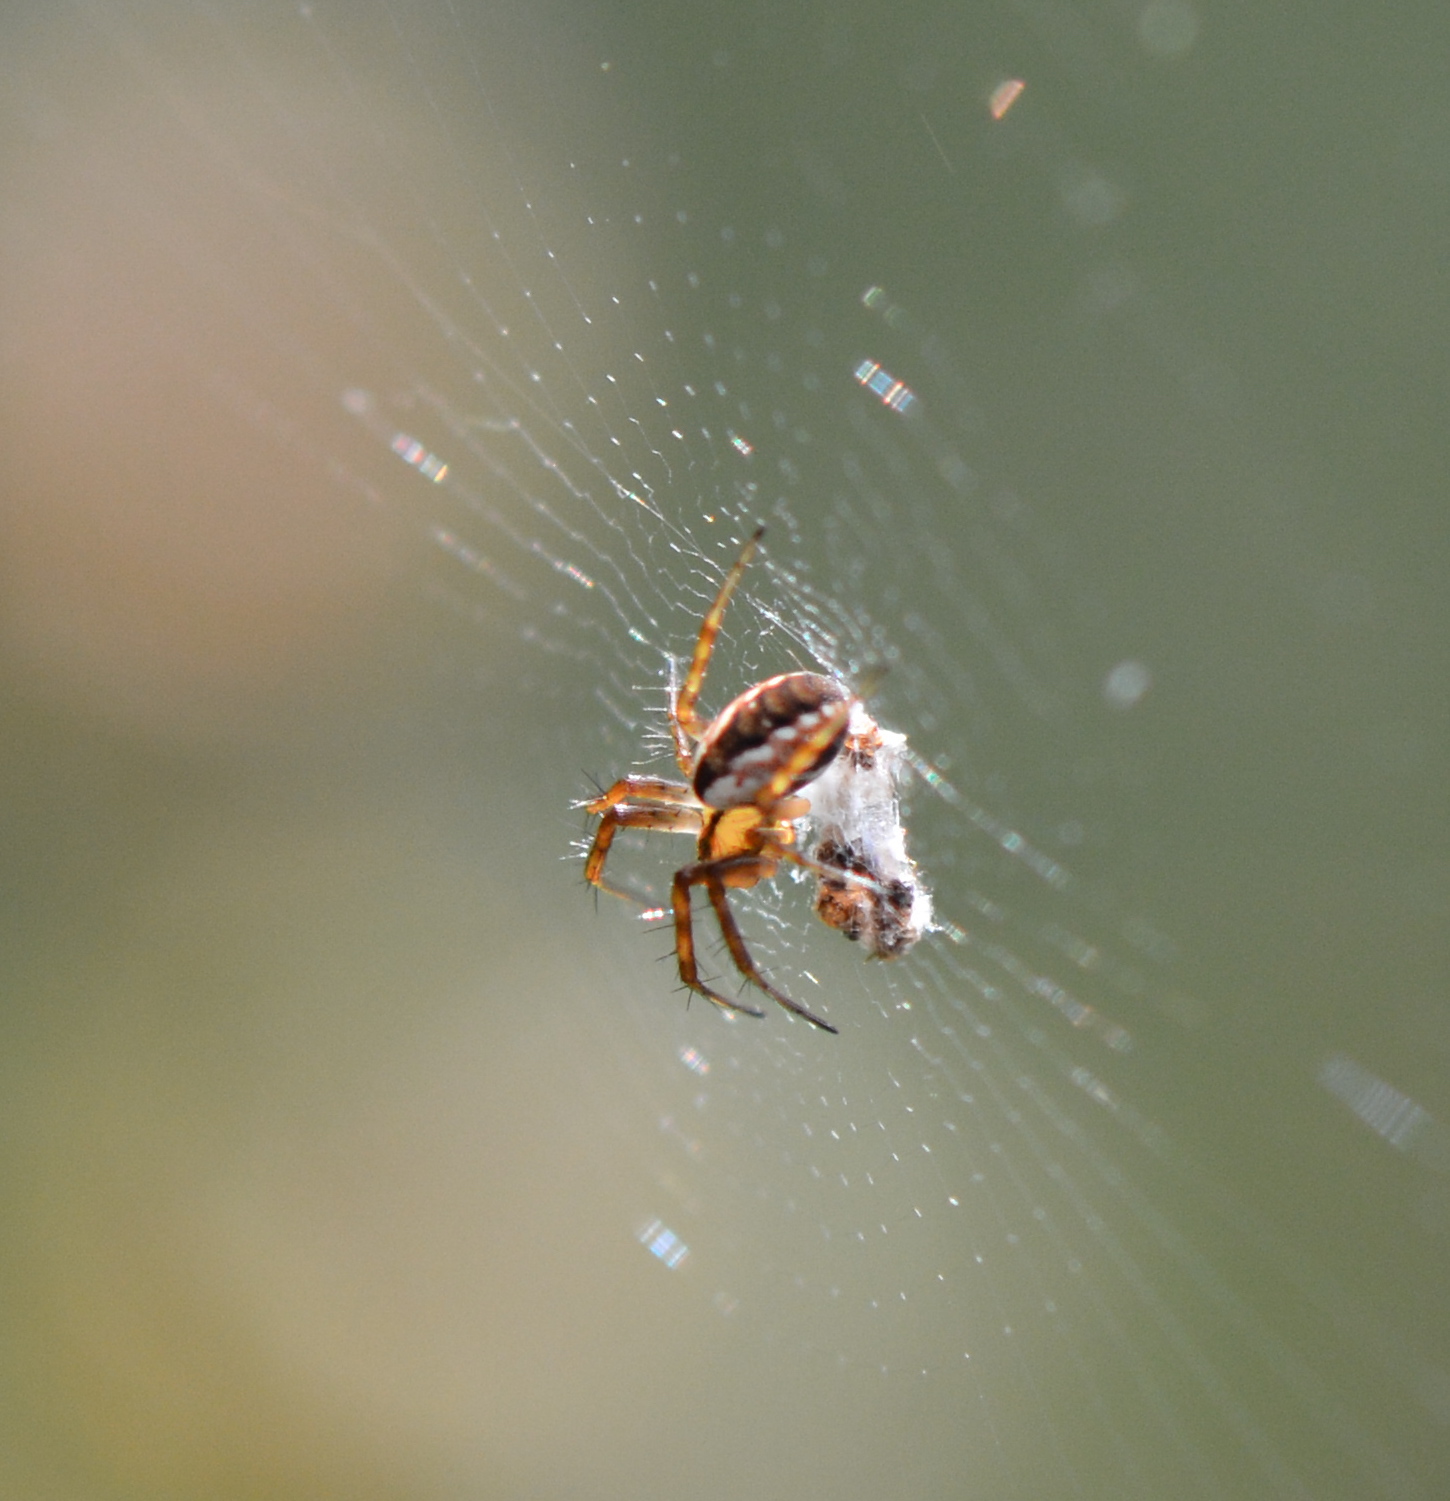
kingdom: Animalia
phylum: Arthropoda
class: Arachnida
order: Araneae
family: Araneidae
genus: Mangora
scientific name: Mangora placida
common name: Tuft-legged orbweaver
